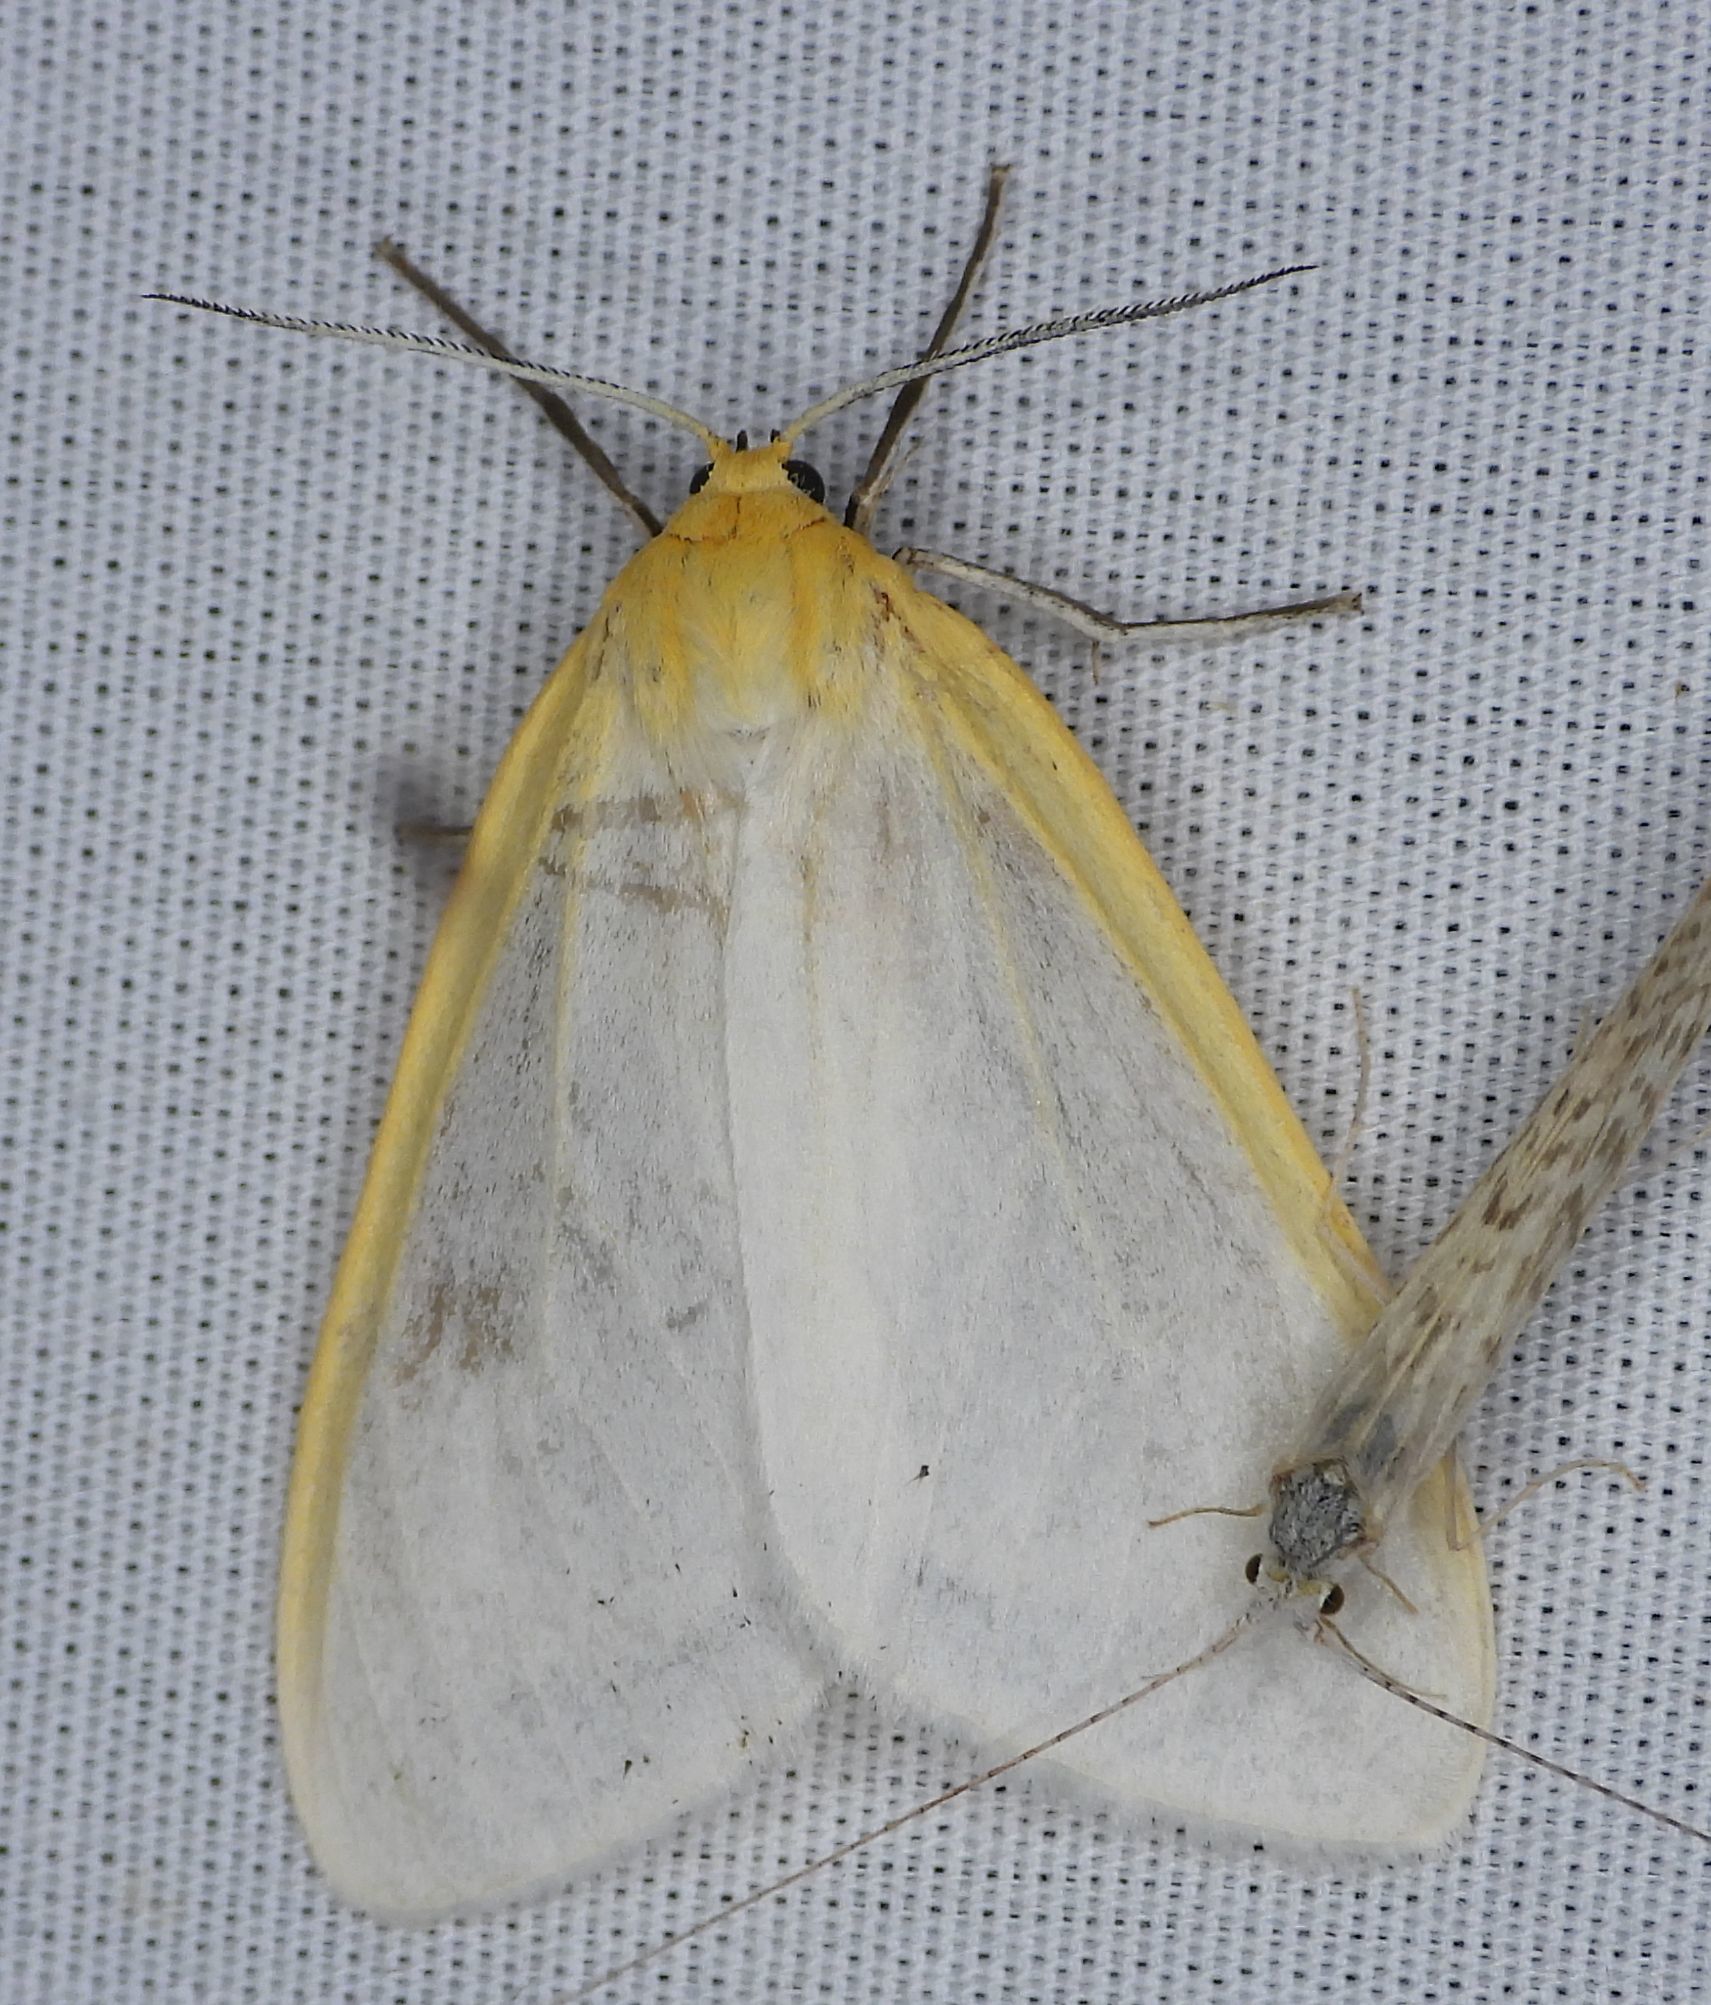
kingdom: Animalia
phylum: Arthropoda
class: Insecta
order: Lepidoptera
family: Erebidae
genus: Cycnia
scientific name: Cycnia tenera
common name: Delicate cycnia moth
